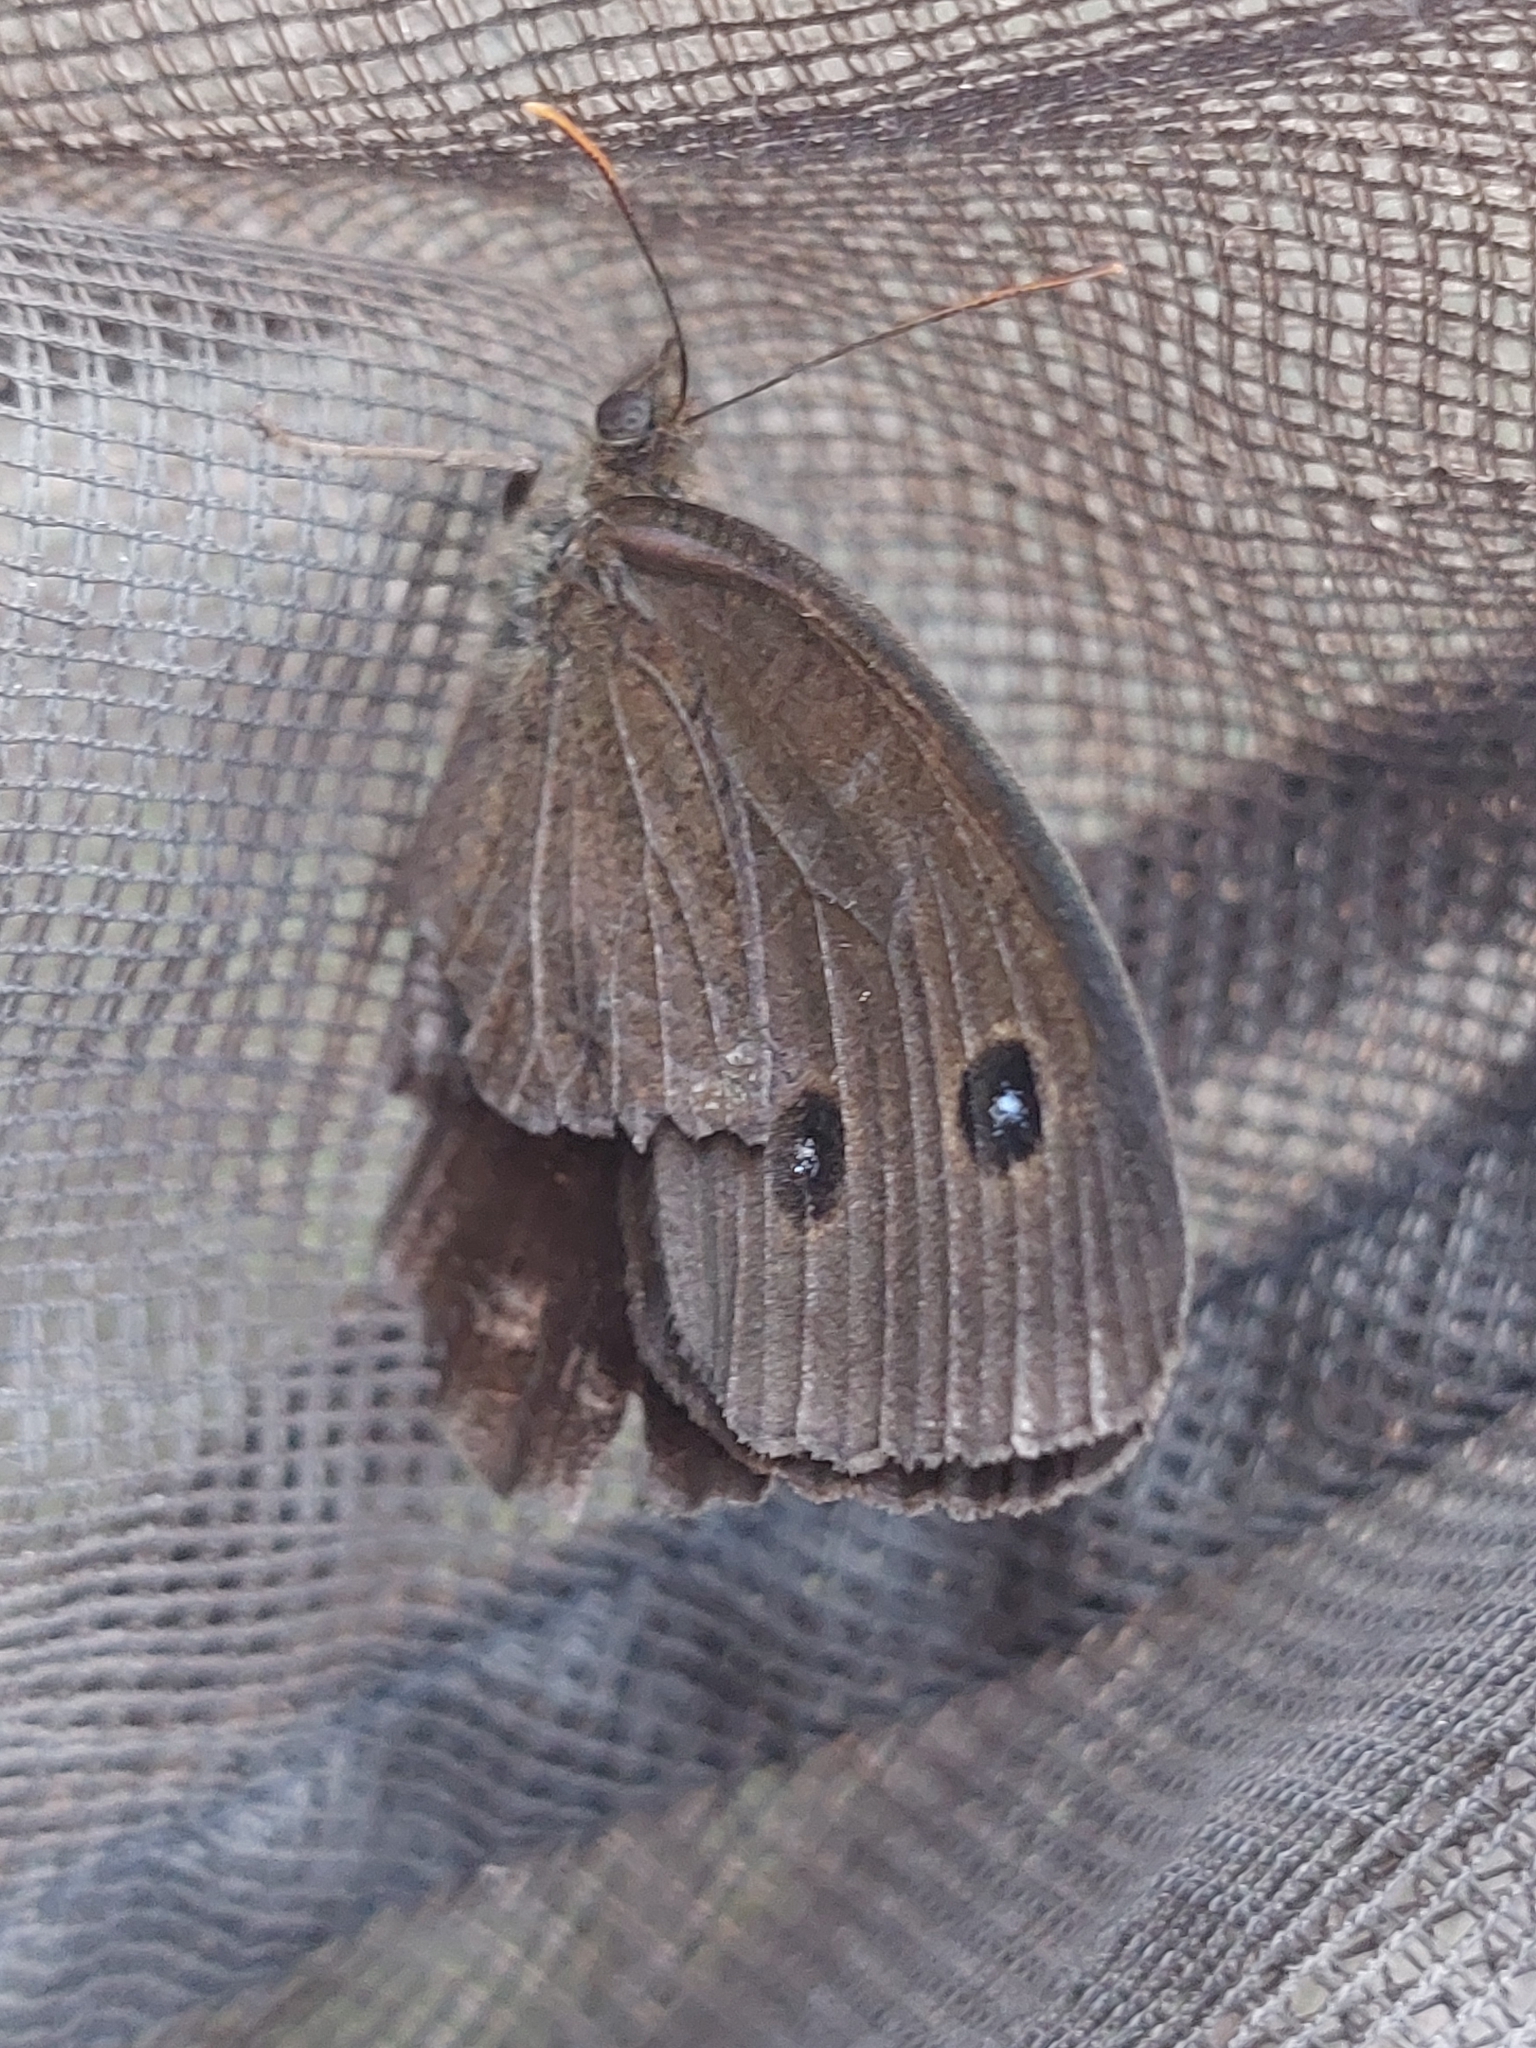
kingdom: Animalia
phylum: Arthropoda
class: Insecta
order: Lepidoptera
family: Nymphalidae
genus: Minois
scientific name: Minois dryas
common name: Dryad
